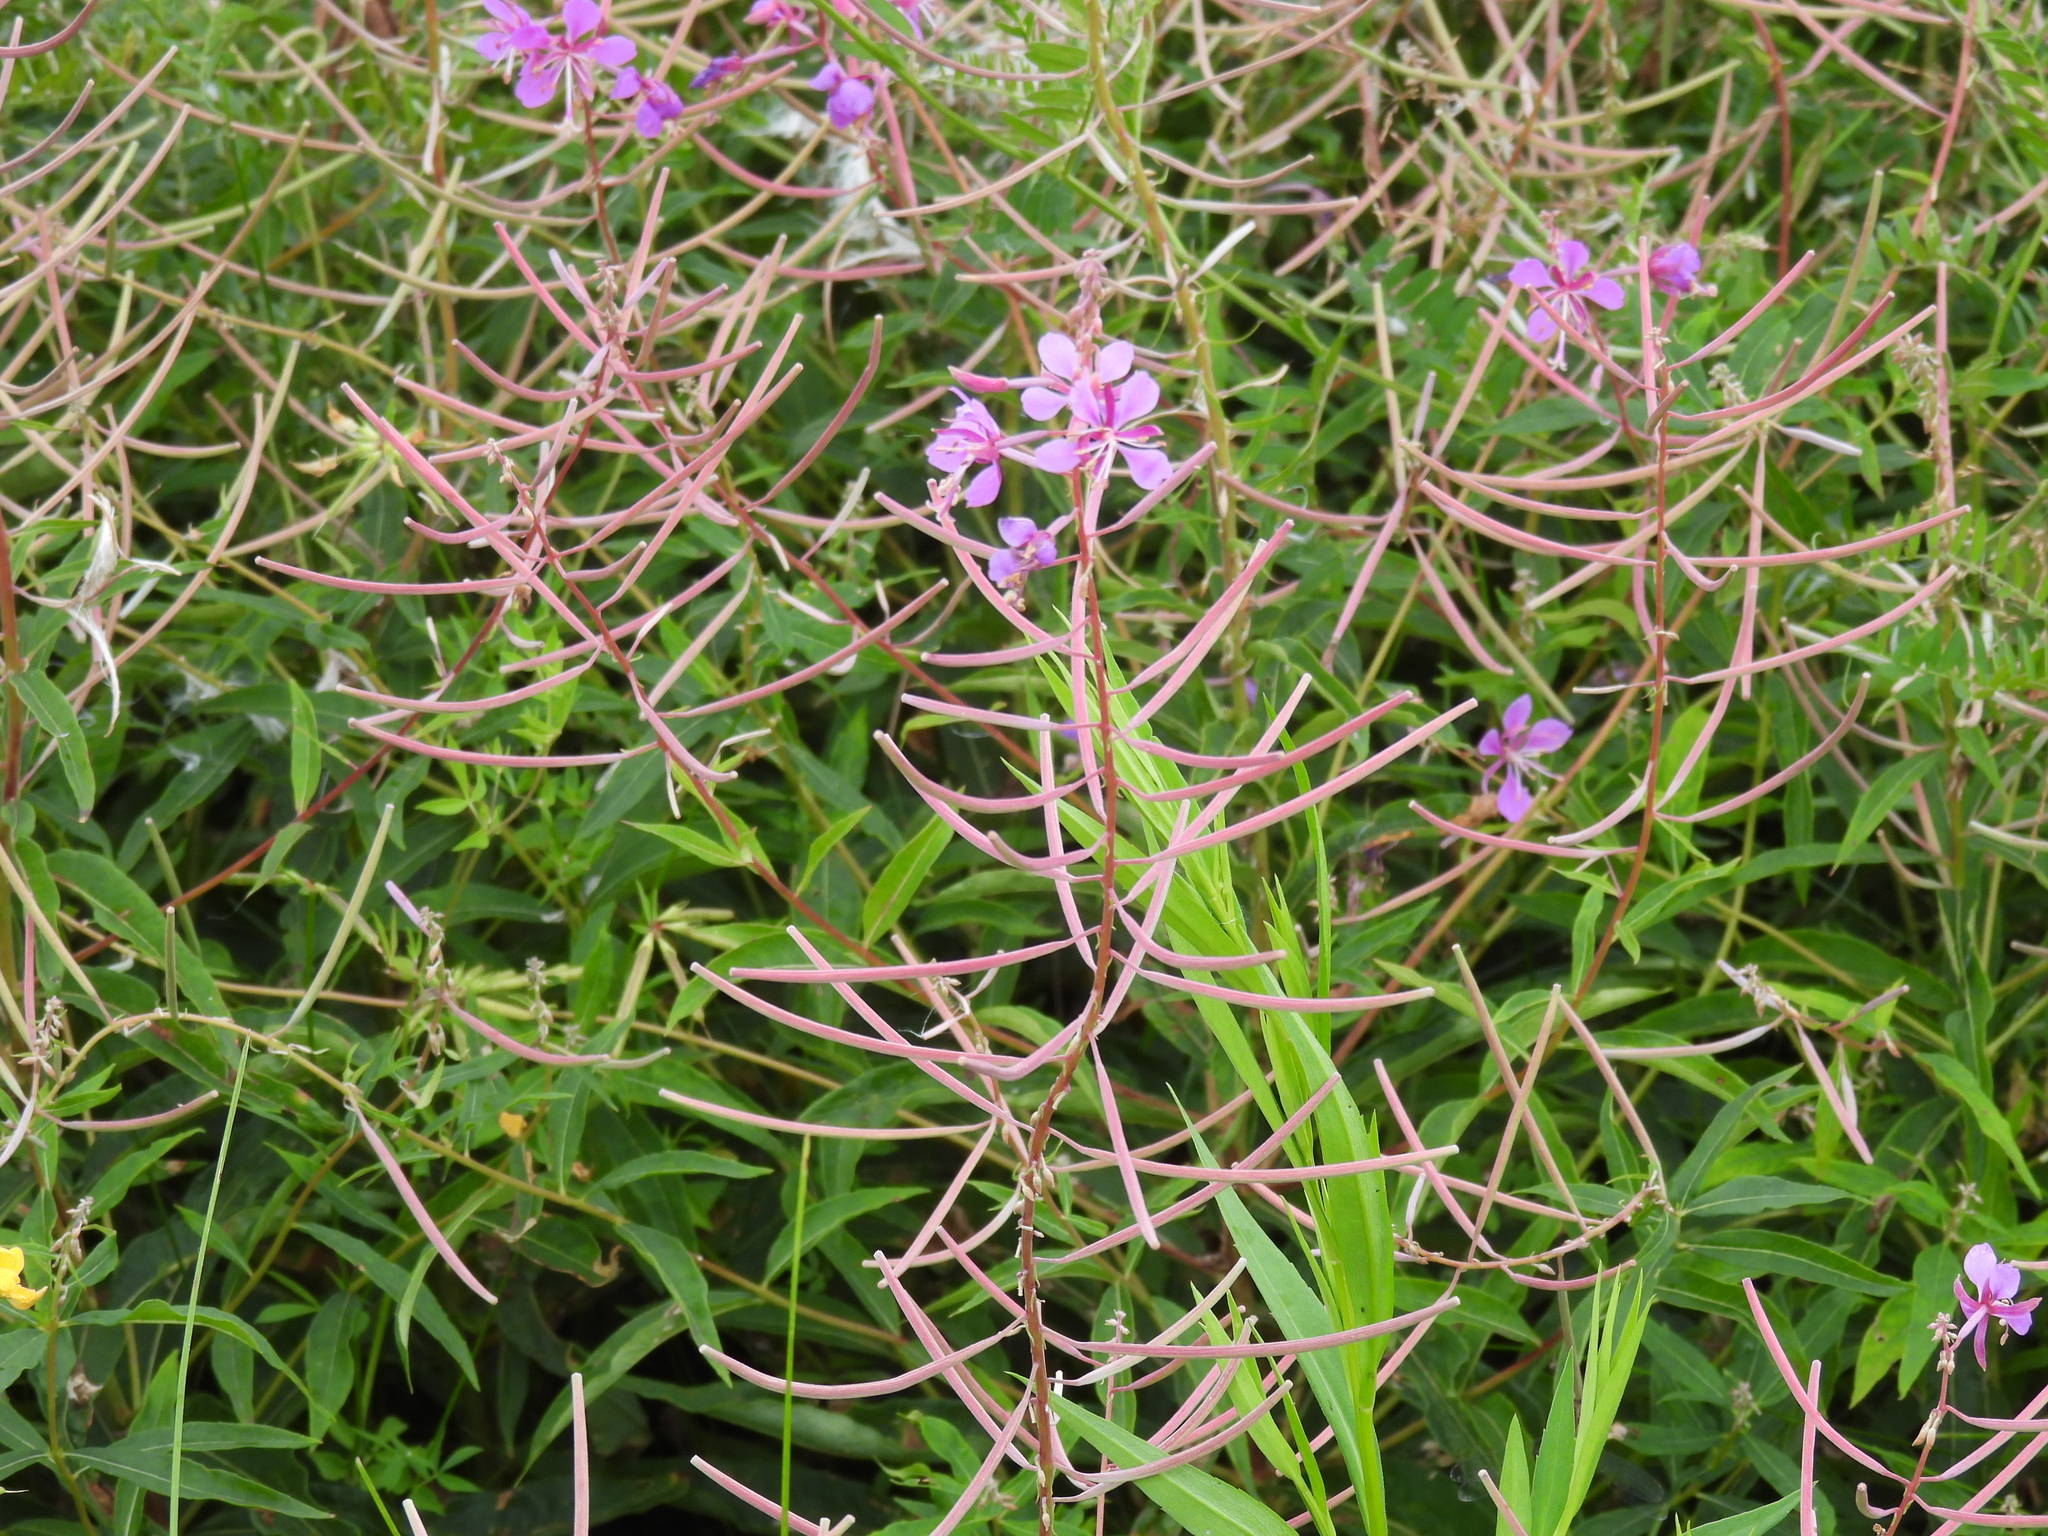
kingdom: Plantae
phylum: Tracheophyta
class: Magnoliopsida
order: Myrtales
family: Onagraceae
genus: Chamaenerion
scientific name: Chamaenerion angustifolium
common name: Fireweed
